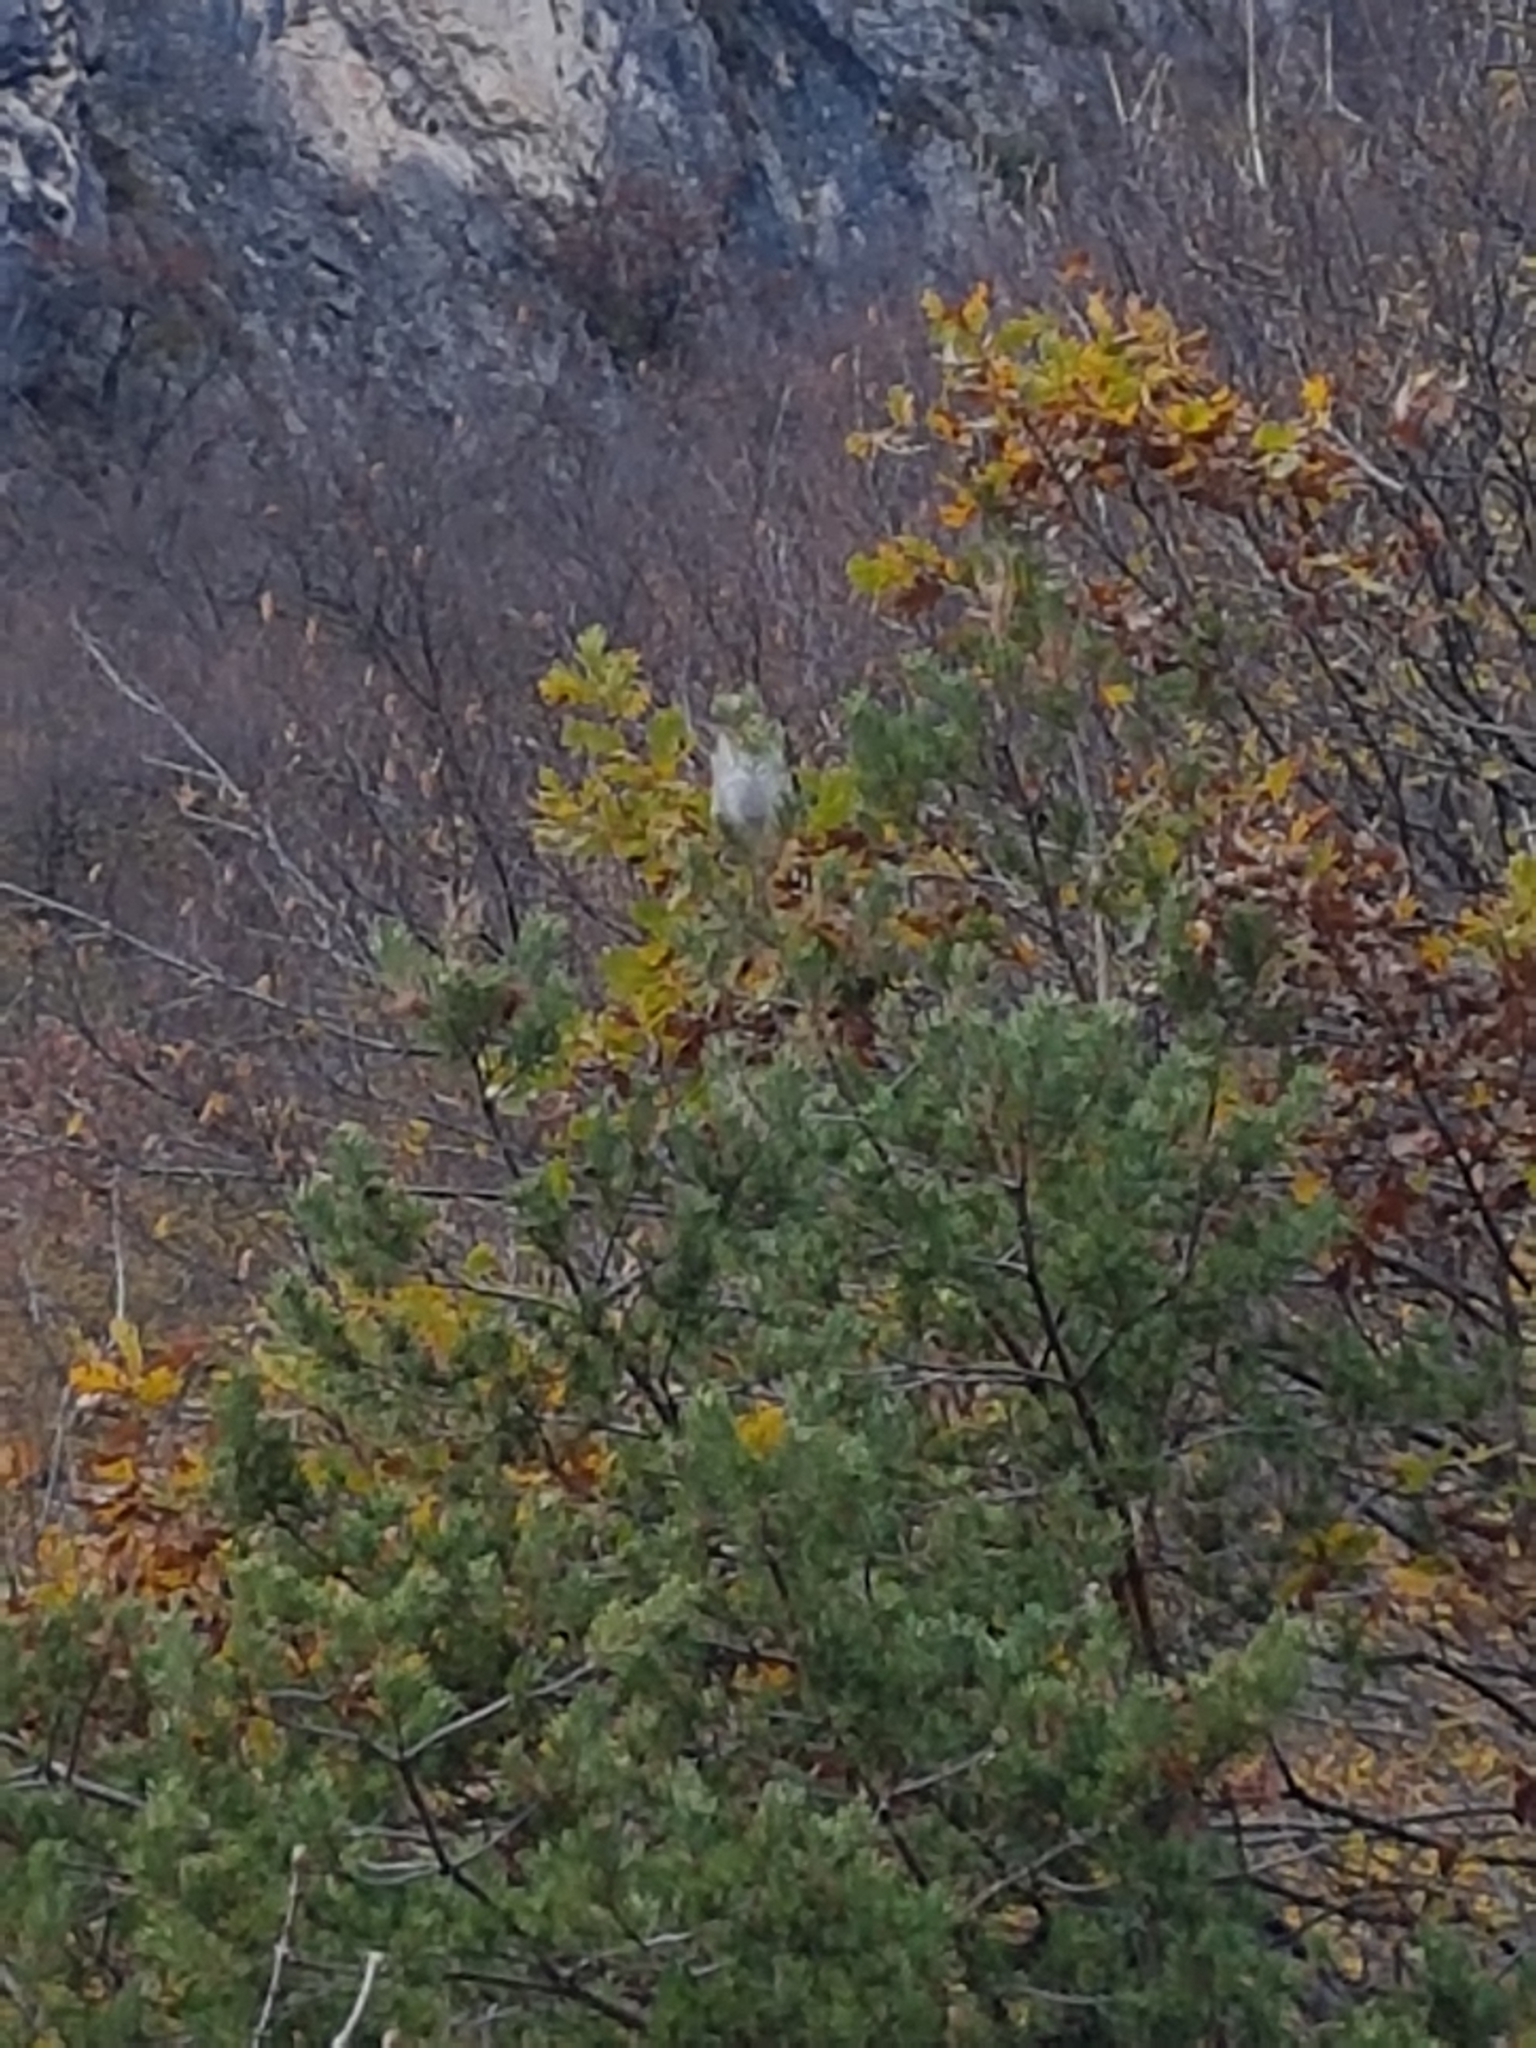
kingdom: Animalia
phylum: Arthropoda
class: Insecta
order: Lepidoptera
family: Notodontidae
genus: Thaumetopoea
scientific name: Thaumetopoea pityocampa
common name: Pine processionary
